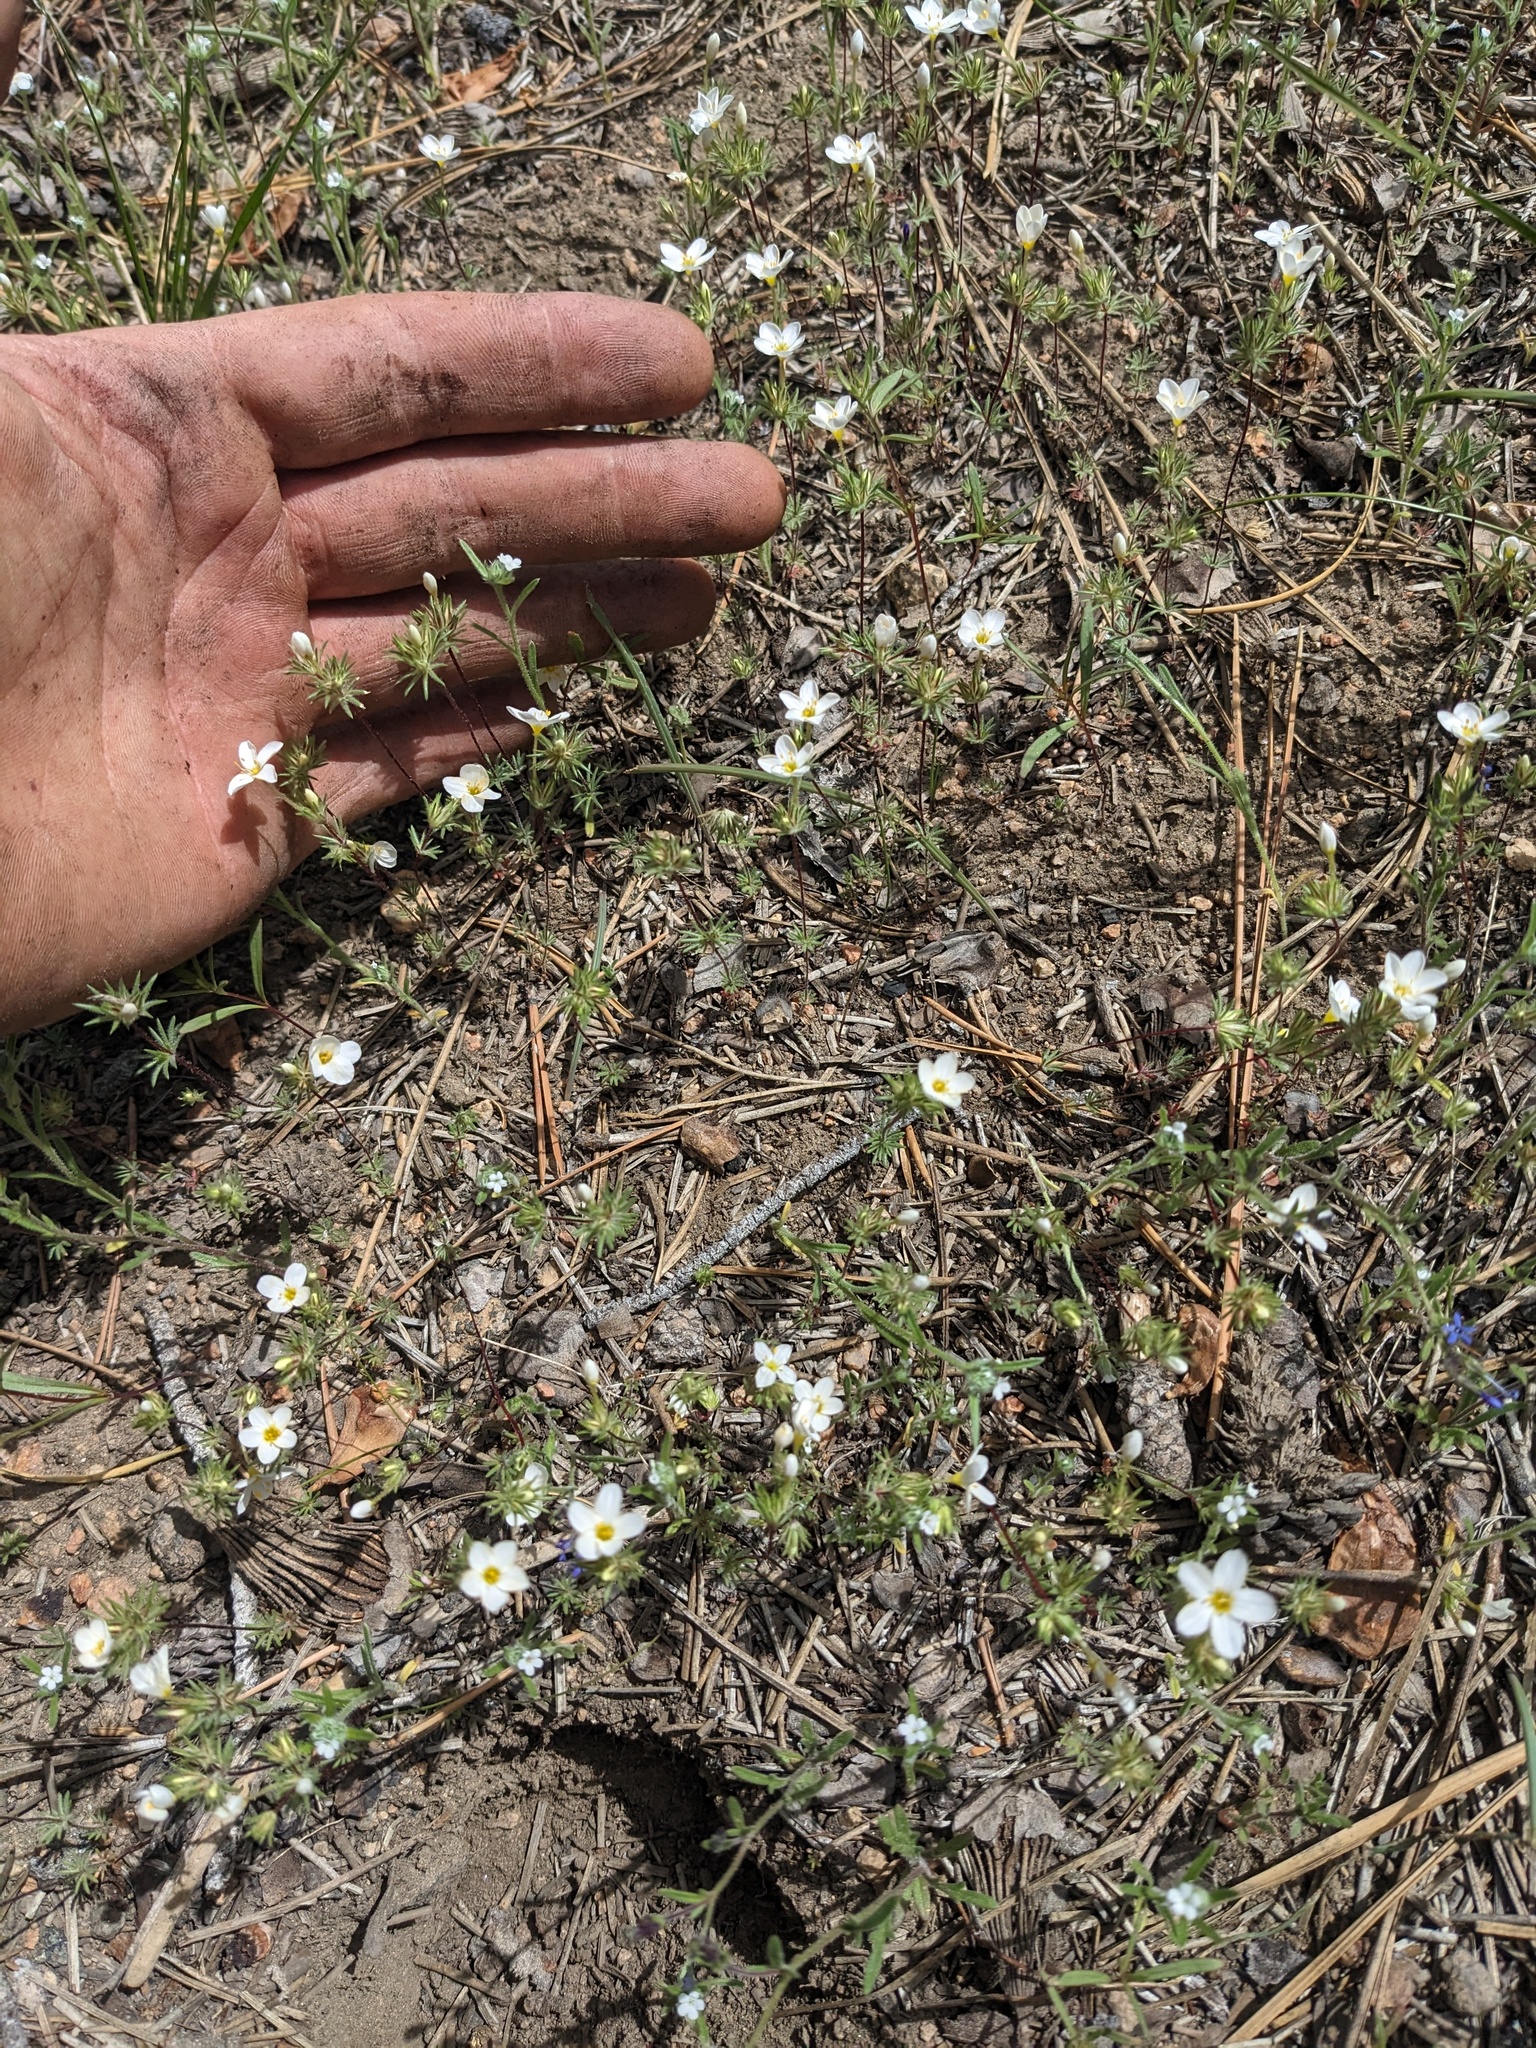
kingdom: Plantae
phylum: Tracheophyta
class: Magnoliopsida
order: Ericales
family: Polemoniaceae
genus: Leptosiphon
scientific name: Leptosiphon nudatus
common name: Tehachapi linanthus
